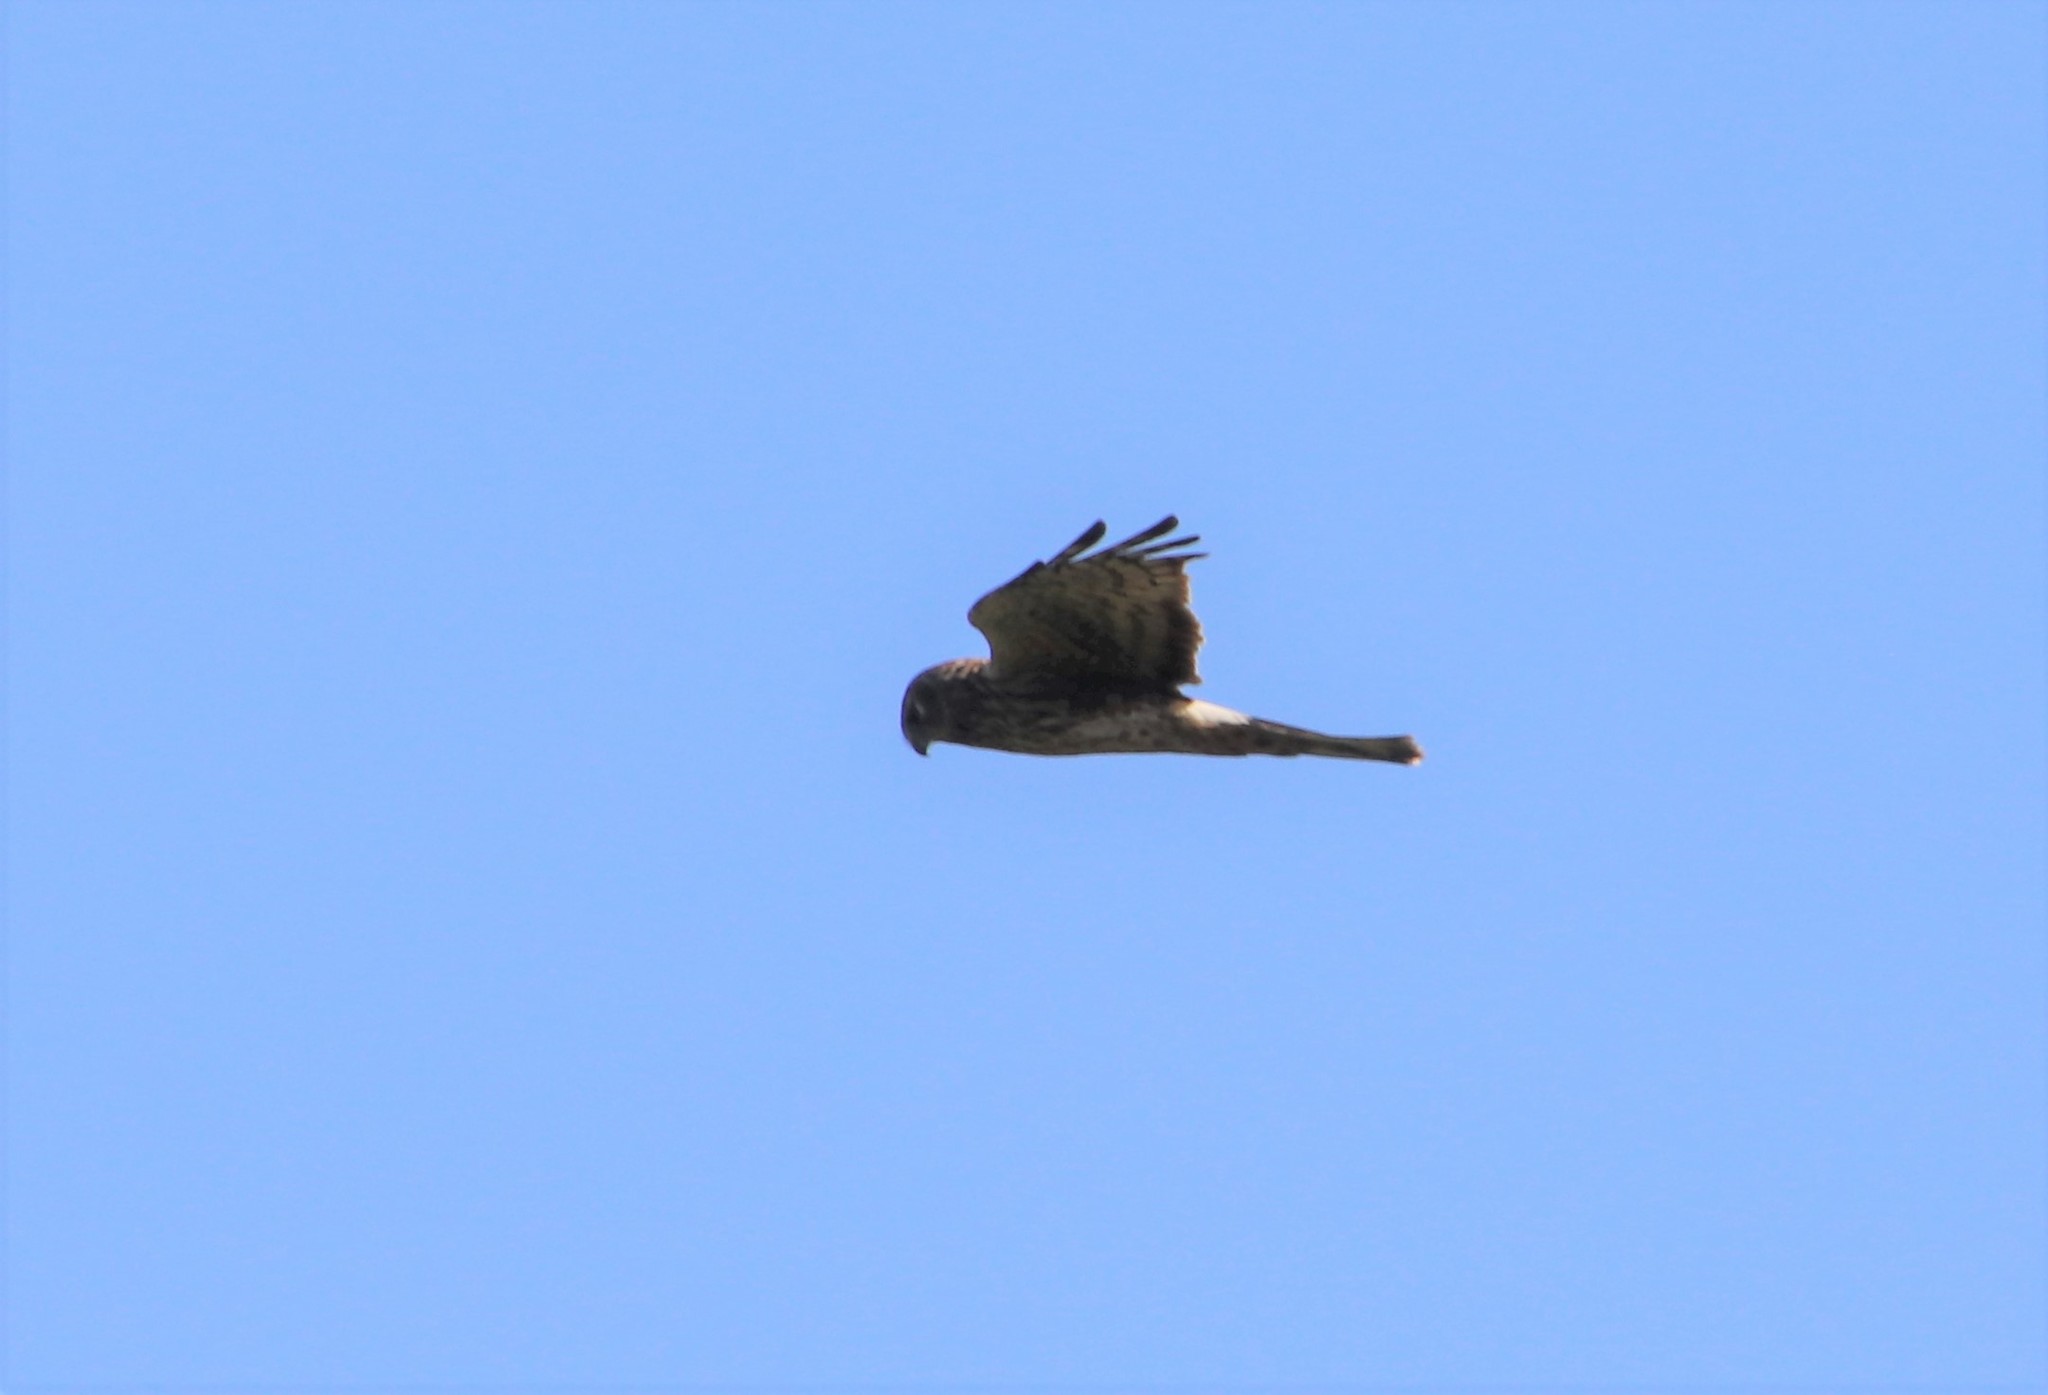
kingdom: Animalia
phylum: Chordata
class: Aves
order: Accipitriformes
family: Accipitridae
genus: Circus
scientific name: Circus cyaneus
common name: Hen harrier
